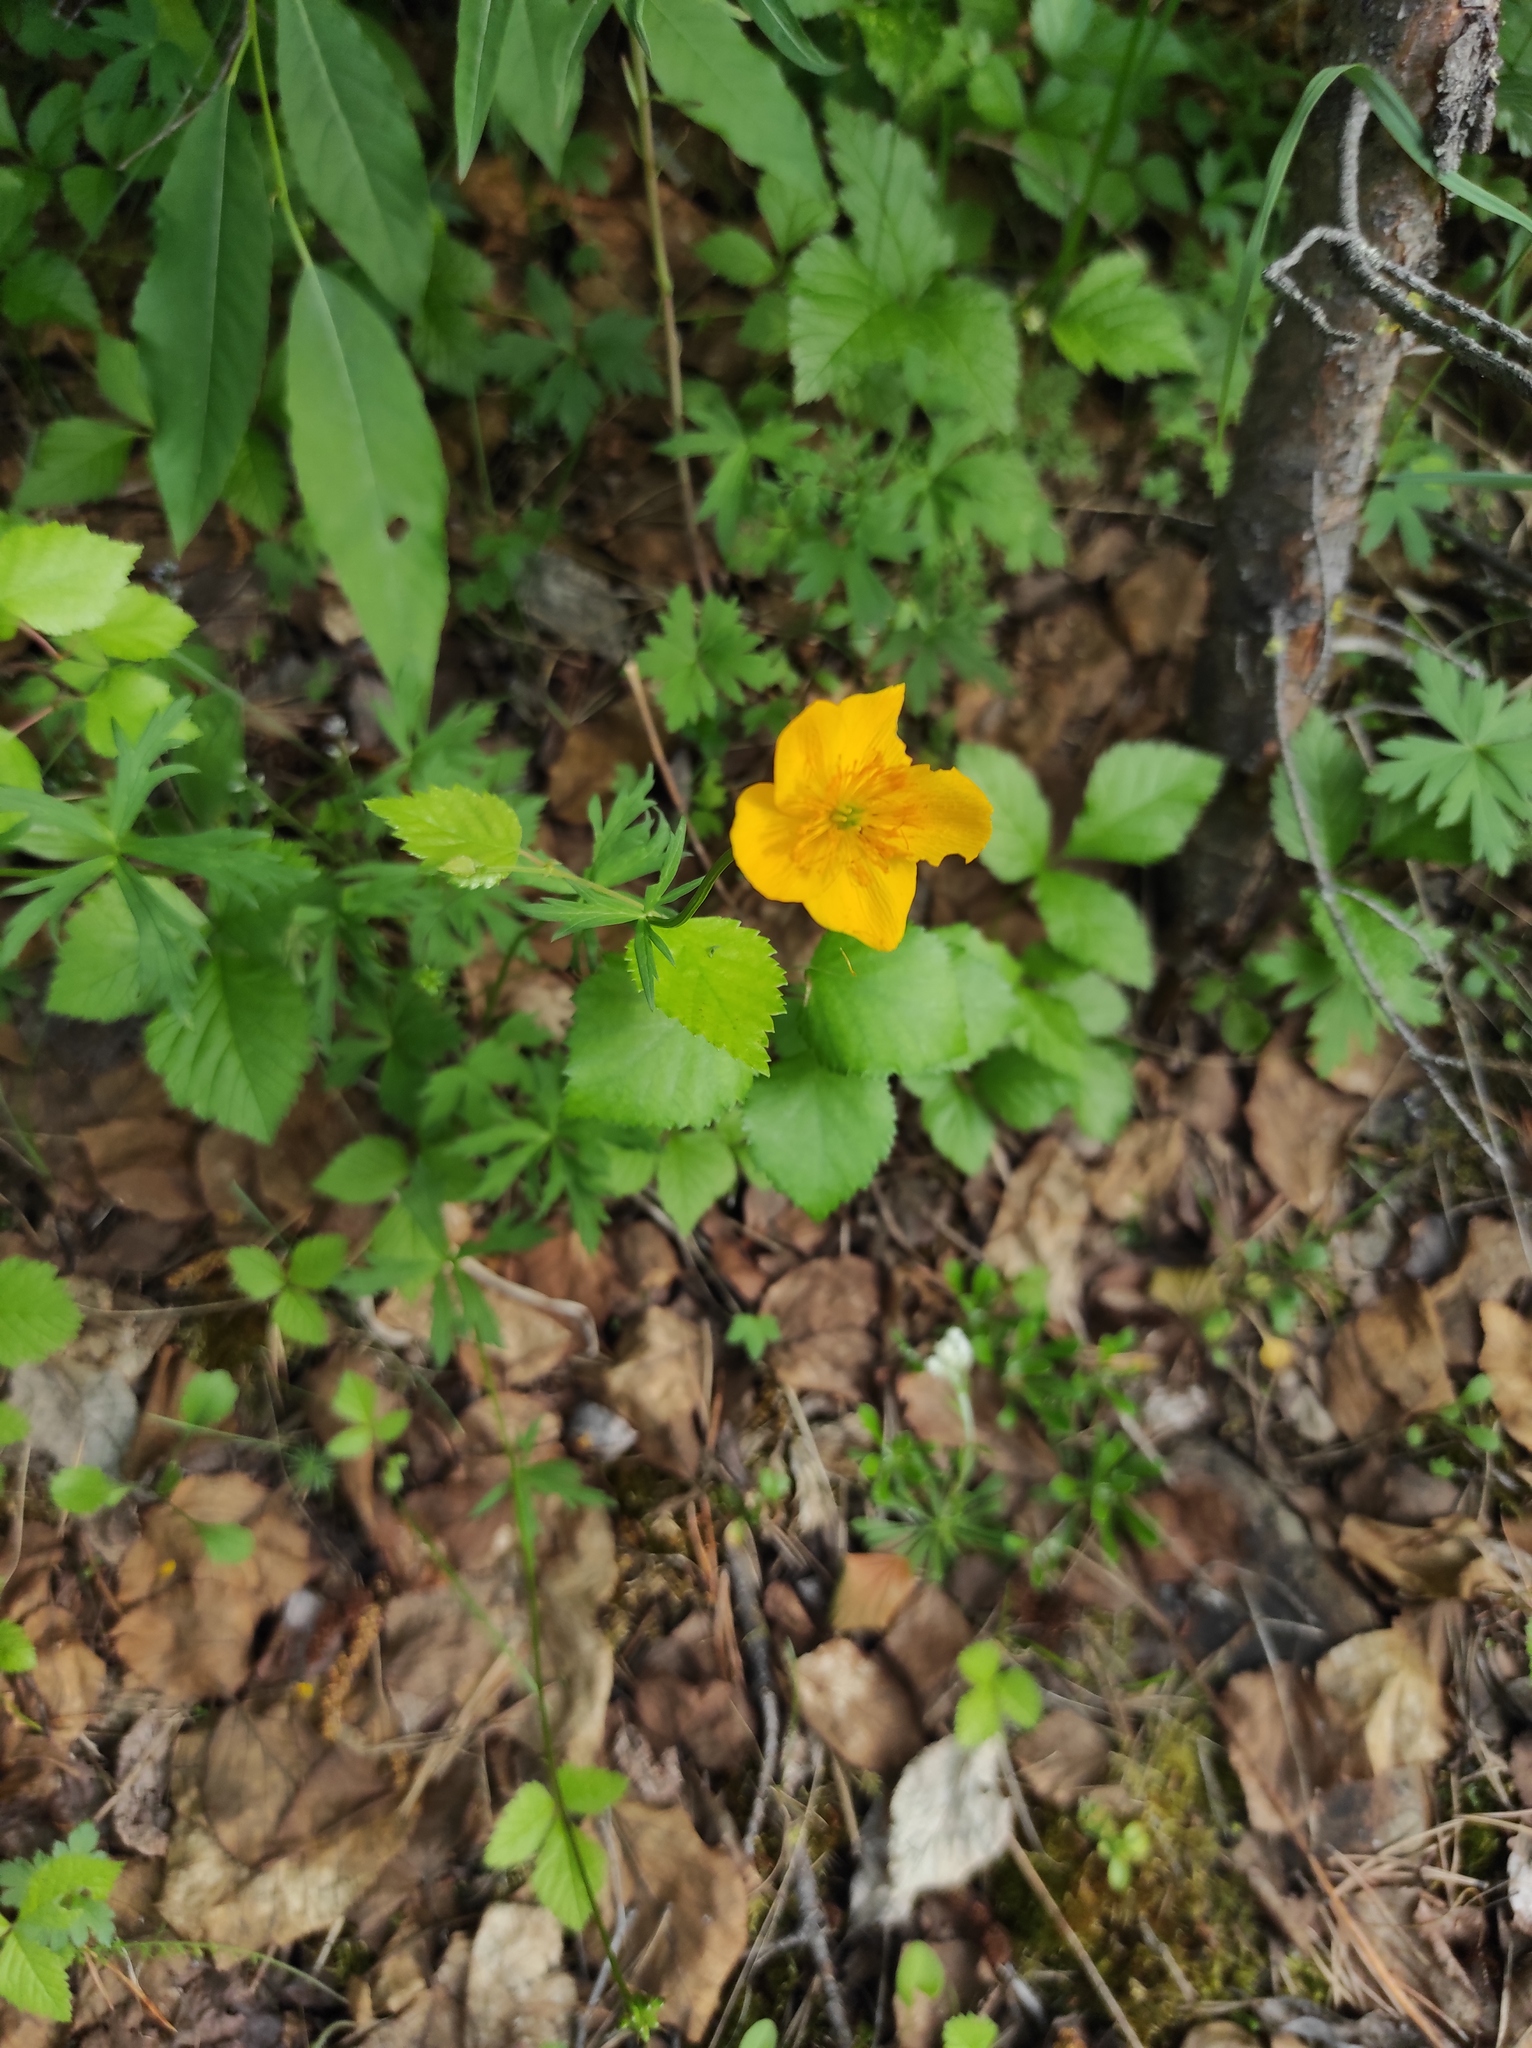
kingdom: Plantae
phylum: Tracheophyta
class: Magnoliopsida
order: Ranunculales
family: Ranunculaceae
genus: Trollius
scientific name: Trollius membranostylis
